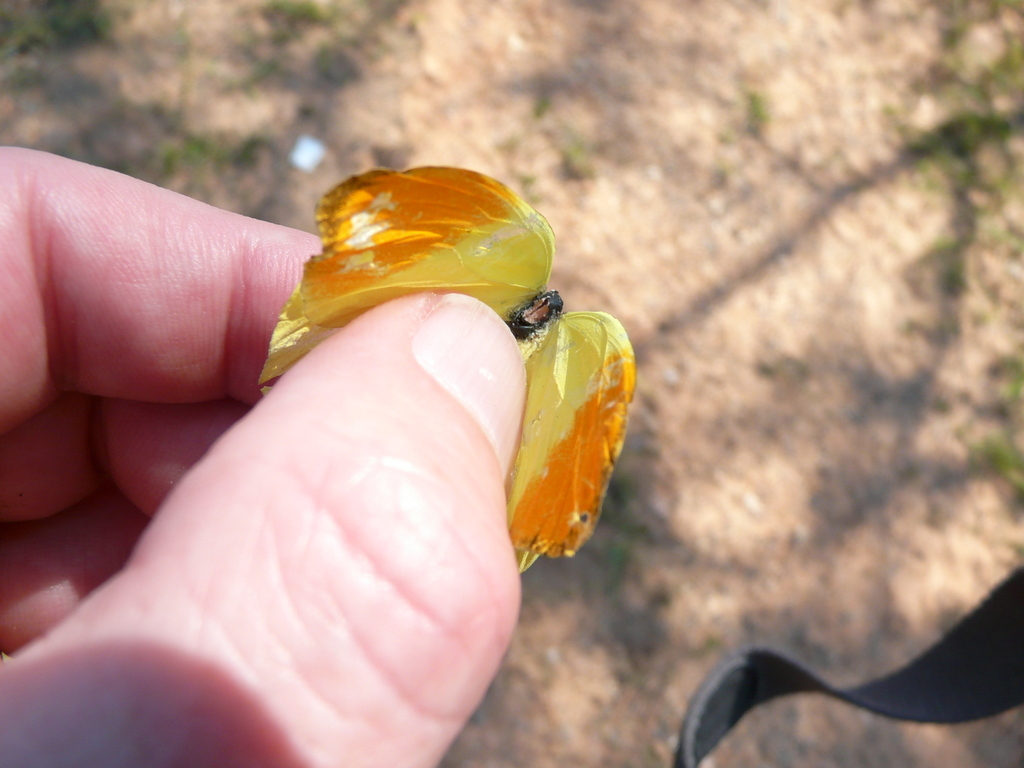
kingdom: Animalia
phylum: Arthropoda
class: Insecta
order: Lepidoptera
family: Pieridae
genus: Eronia
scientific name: Eronia leda
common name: Autumn leaf vagrant
